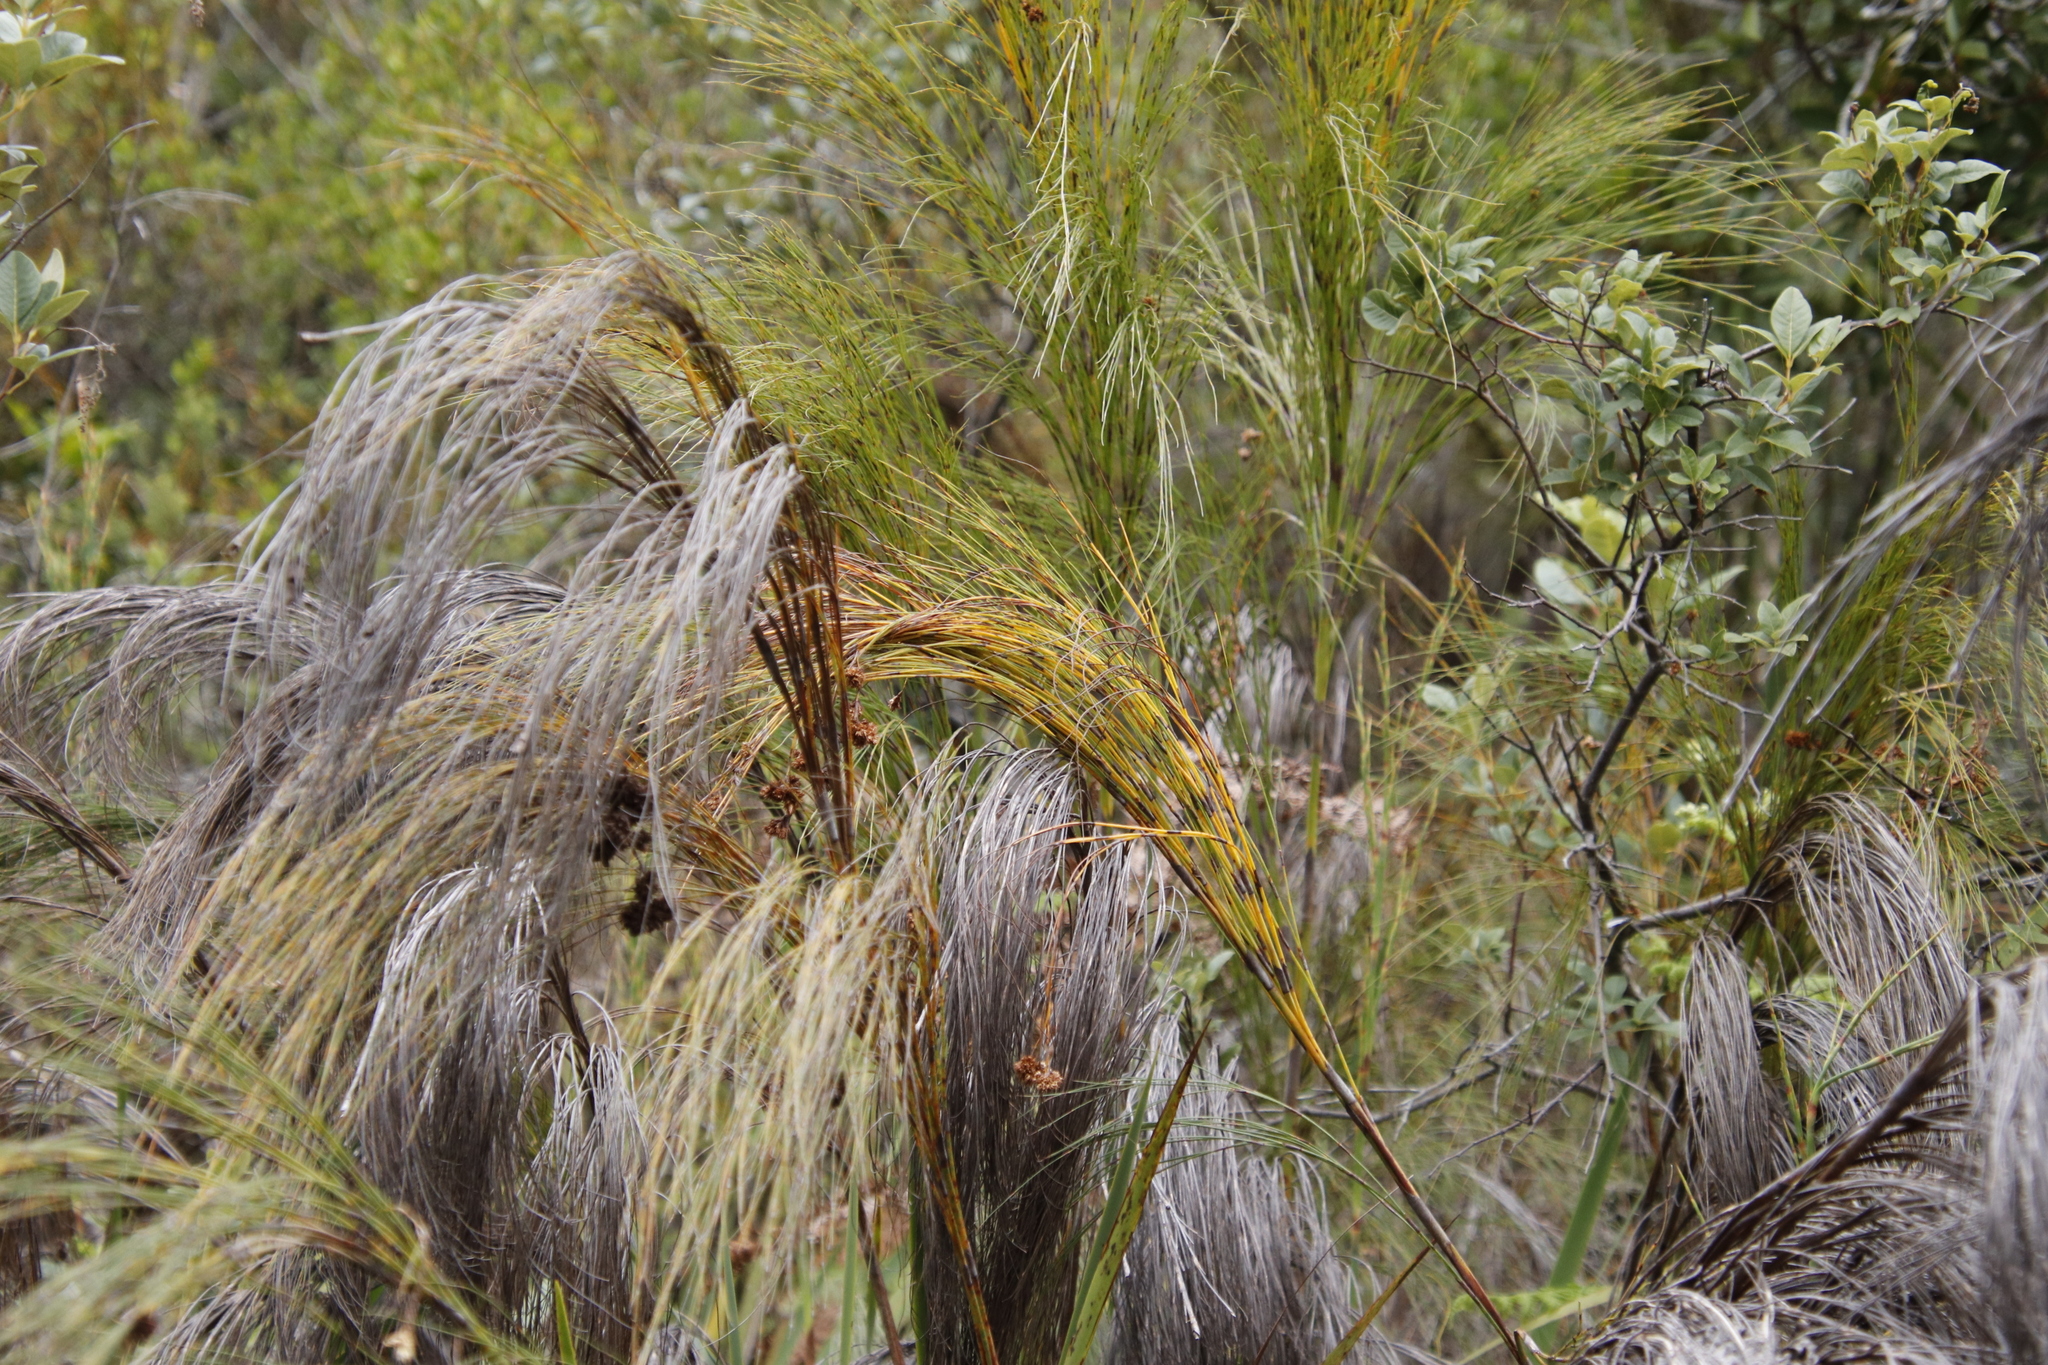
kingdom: Plantae
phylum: Tracheophyta
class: Liliopsida
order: Poales
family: Restionaceae
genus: Cannomois
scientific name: Cannomois virgata
